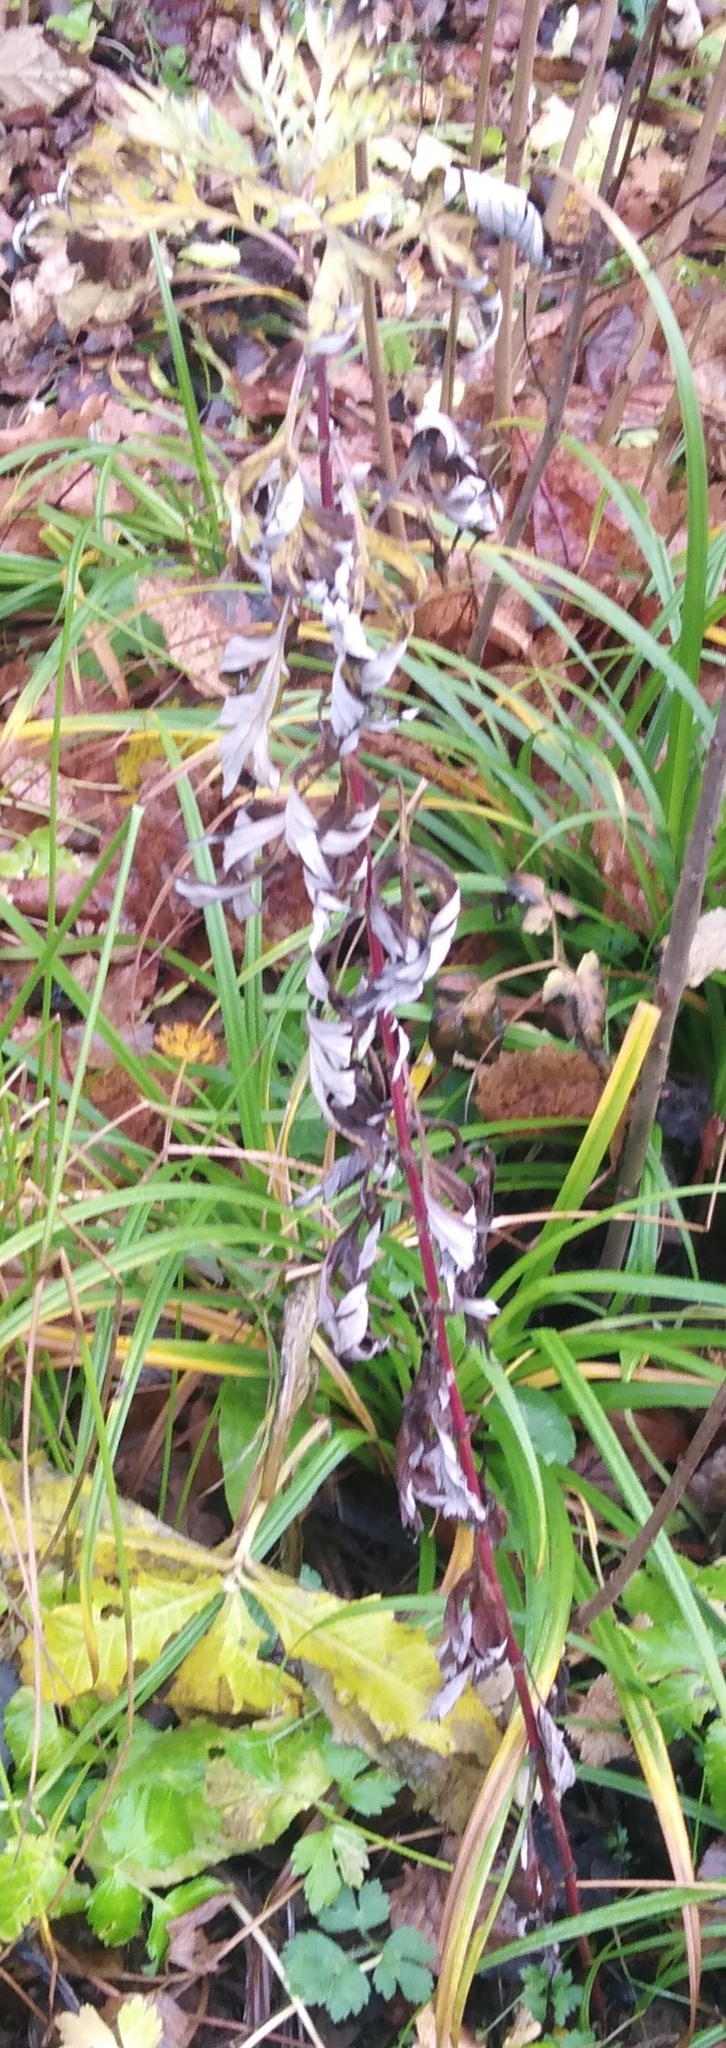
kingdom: Plantae
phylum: Tracheophyta
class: Magnoliopsida
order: Asterales
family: Asteraceae
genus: Artemisia
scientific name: Artemisia vulgaris
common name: Mugwort
